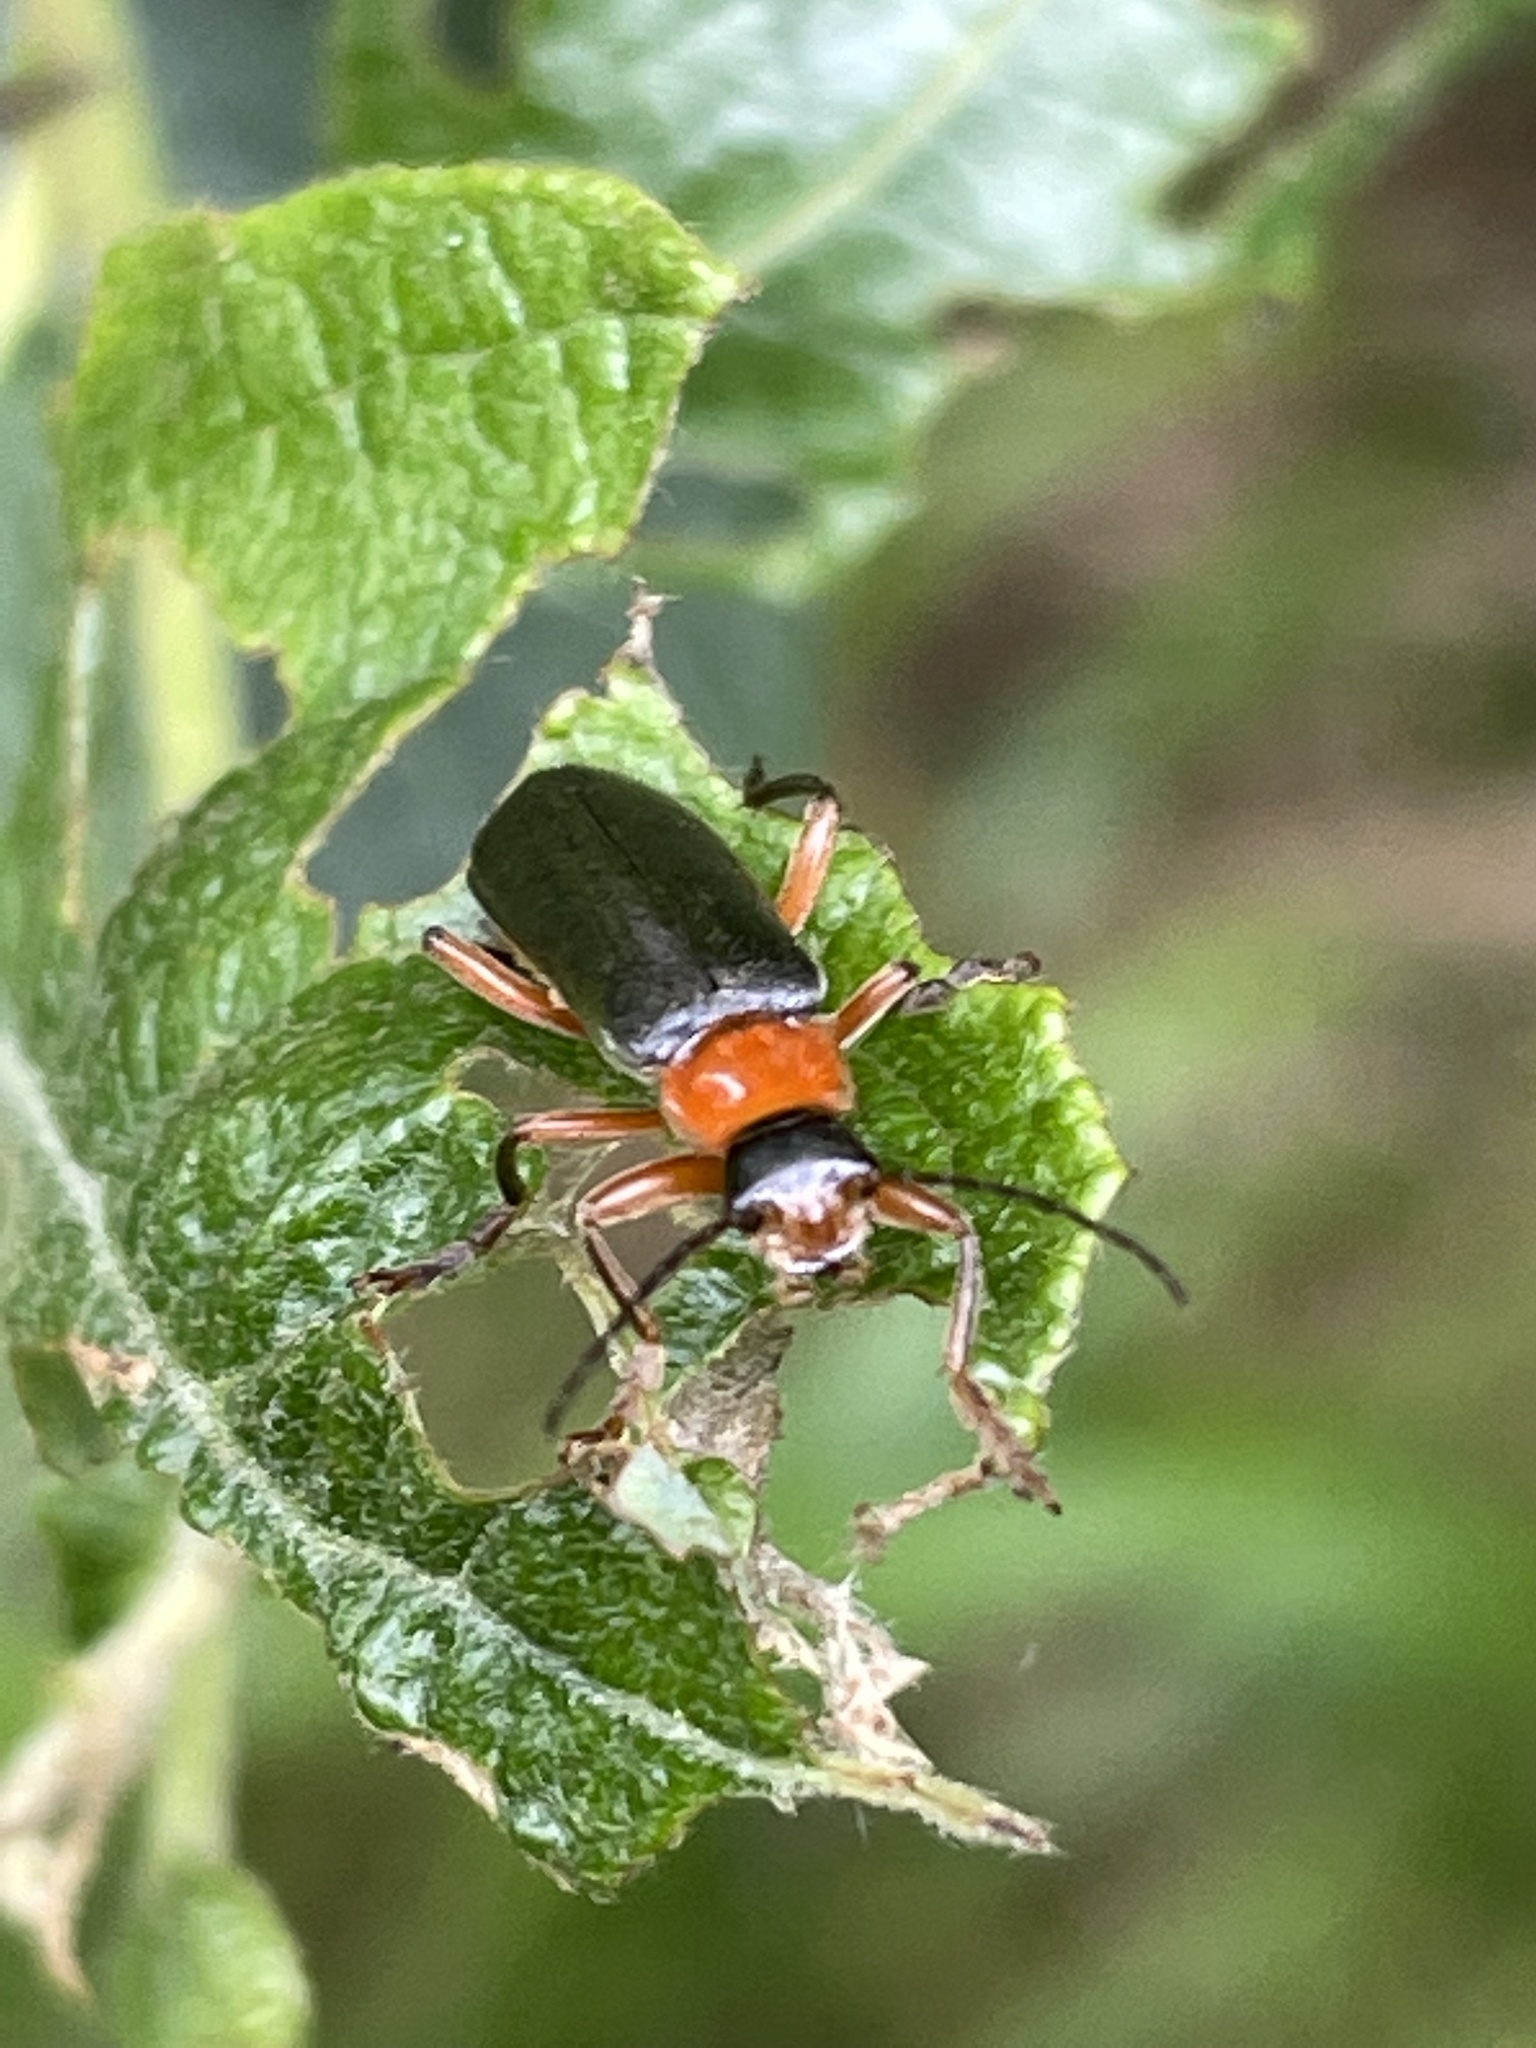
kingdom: Animalia
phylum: Arthropoda
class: Insecta
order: Coleoptera
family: Cantharidae
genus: Cantharis
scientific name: Cantharis pellucida
